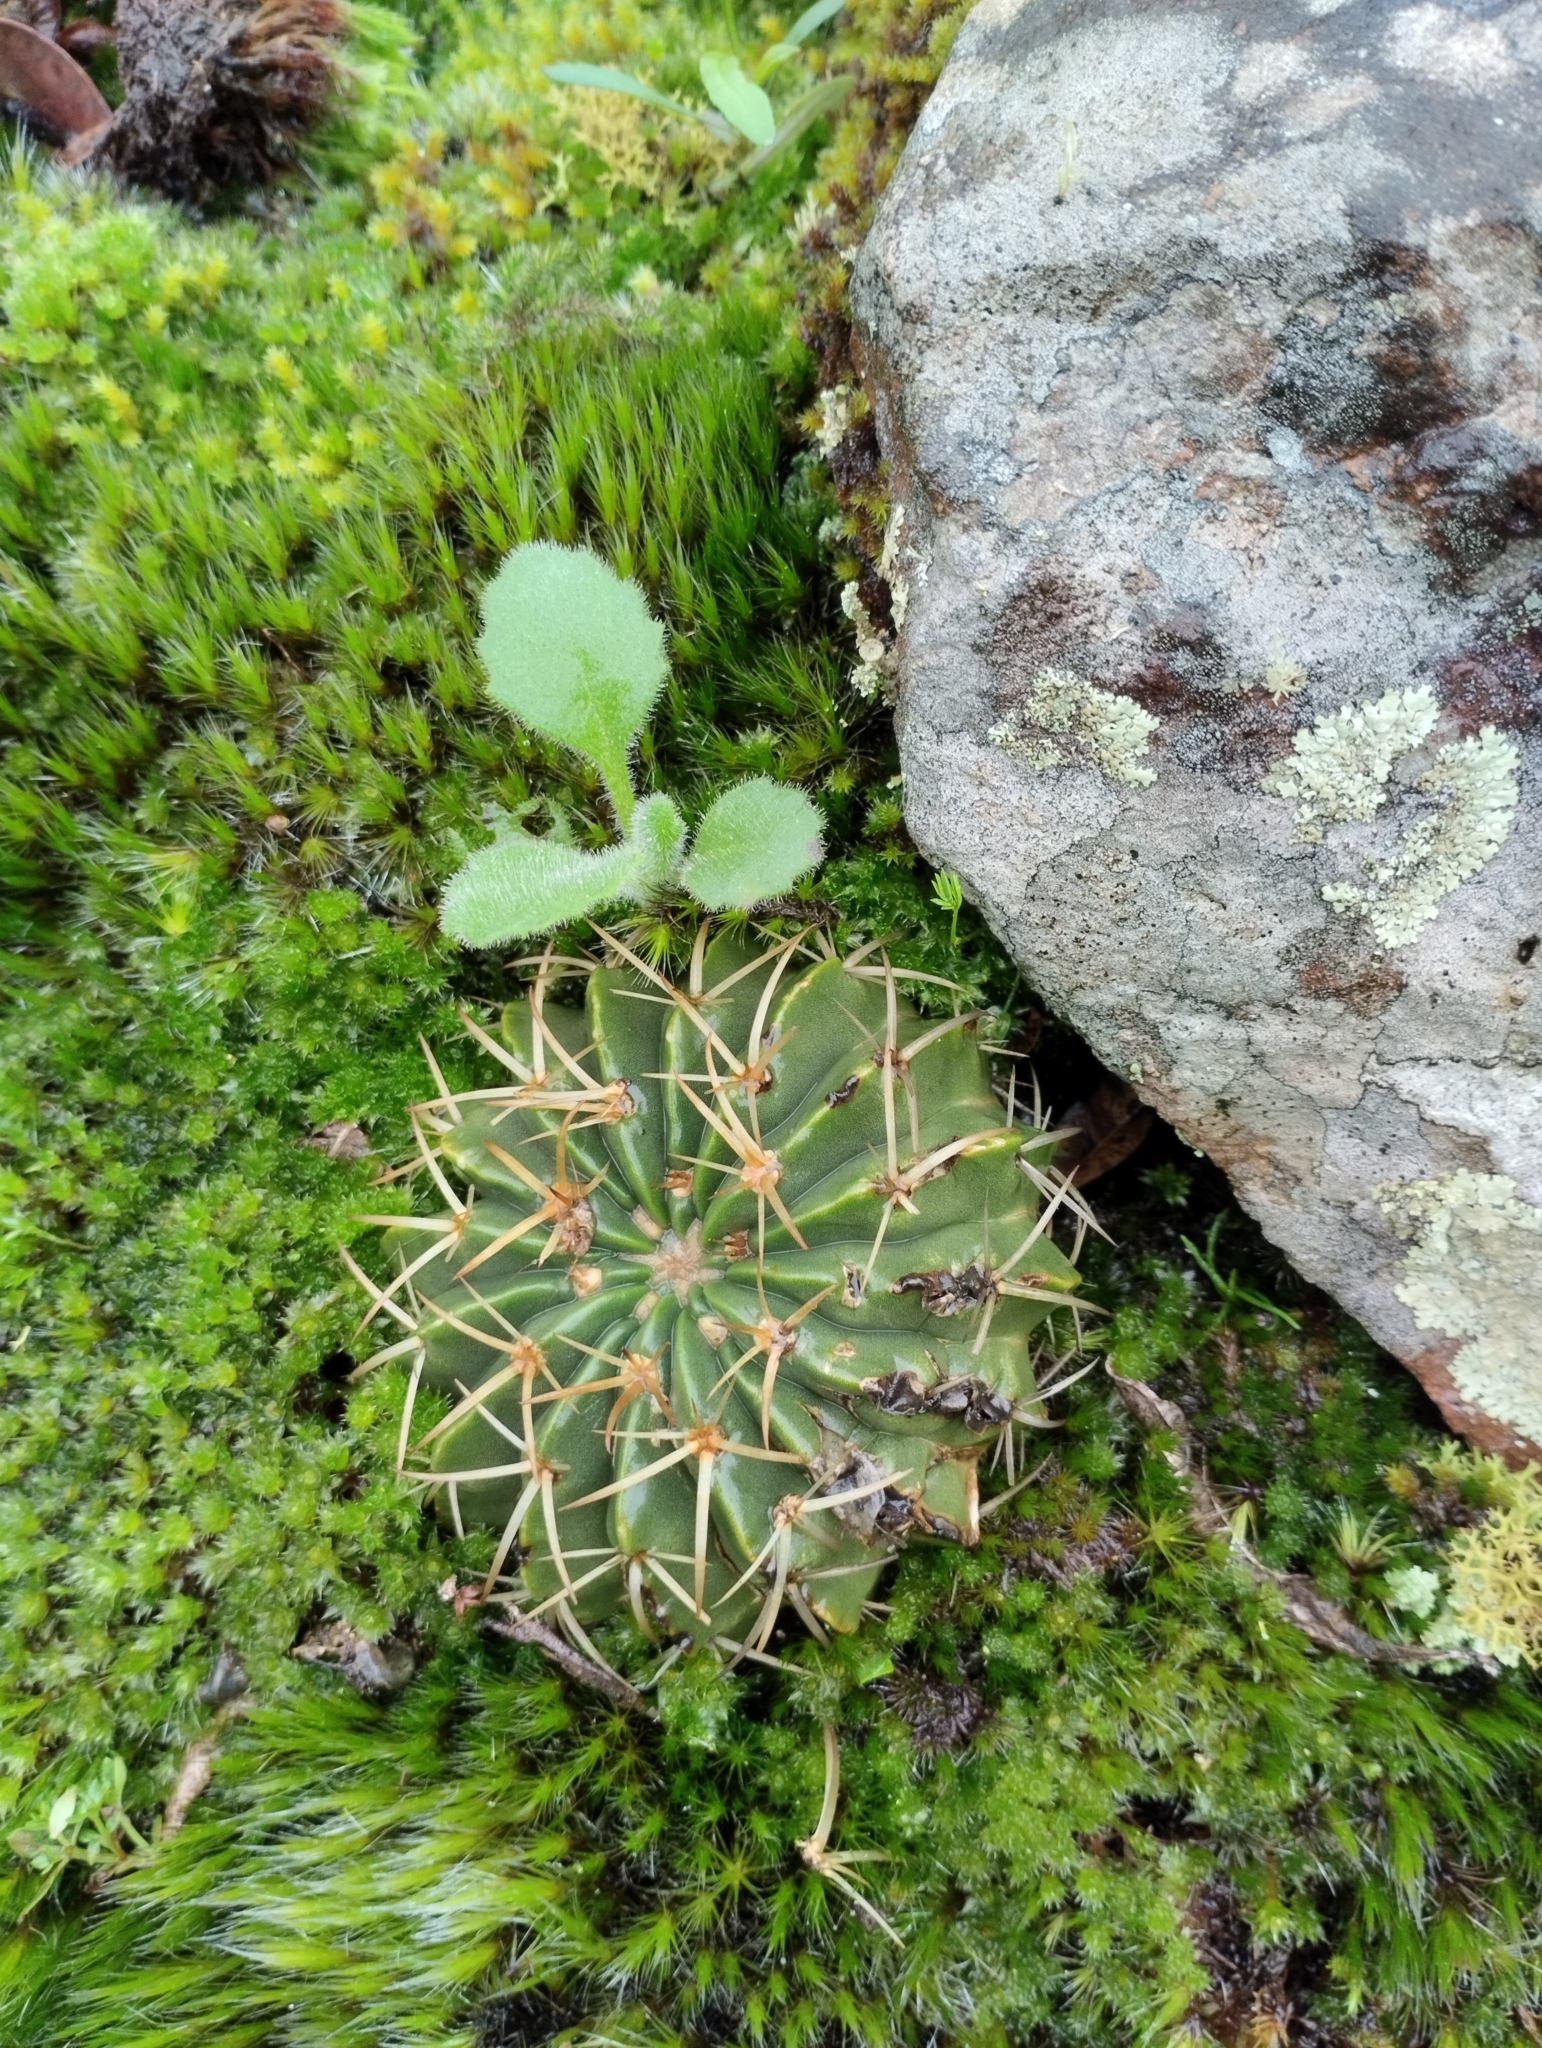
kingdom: Plantae
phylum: Tracheophyta
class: Magnoliopsida
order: Caryophyllales
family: Cactaceae
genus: Parodia
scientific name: Parodia erinacea
